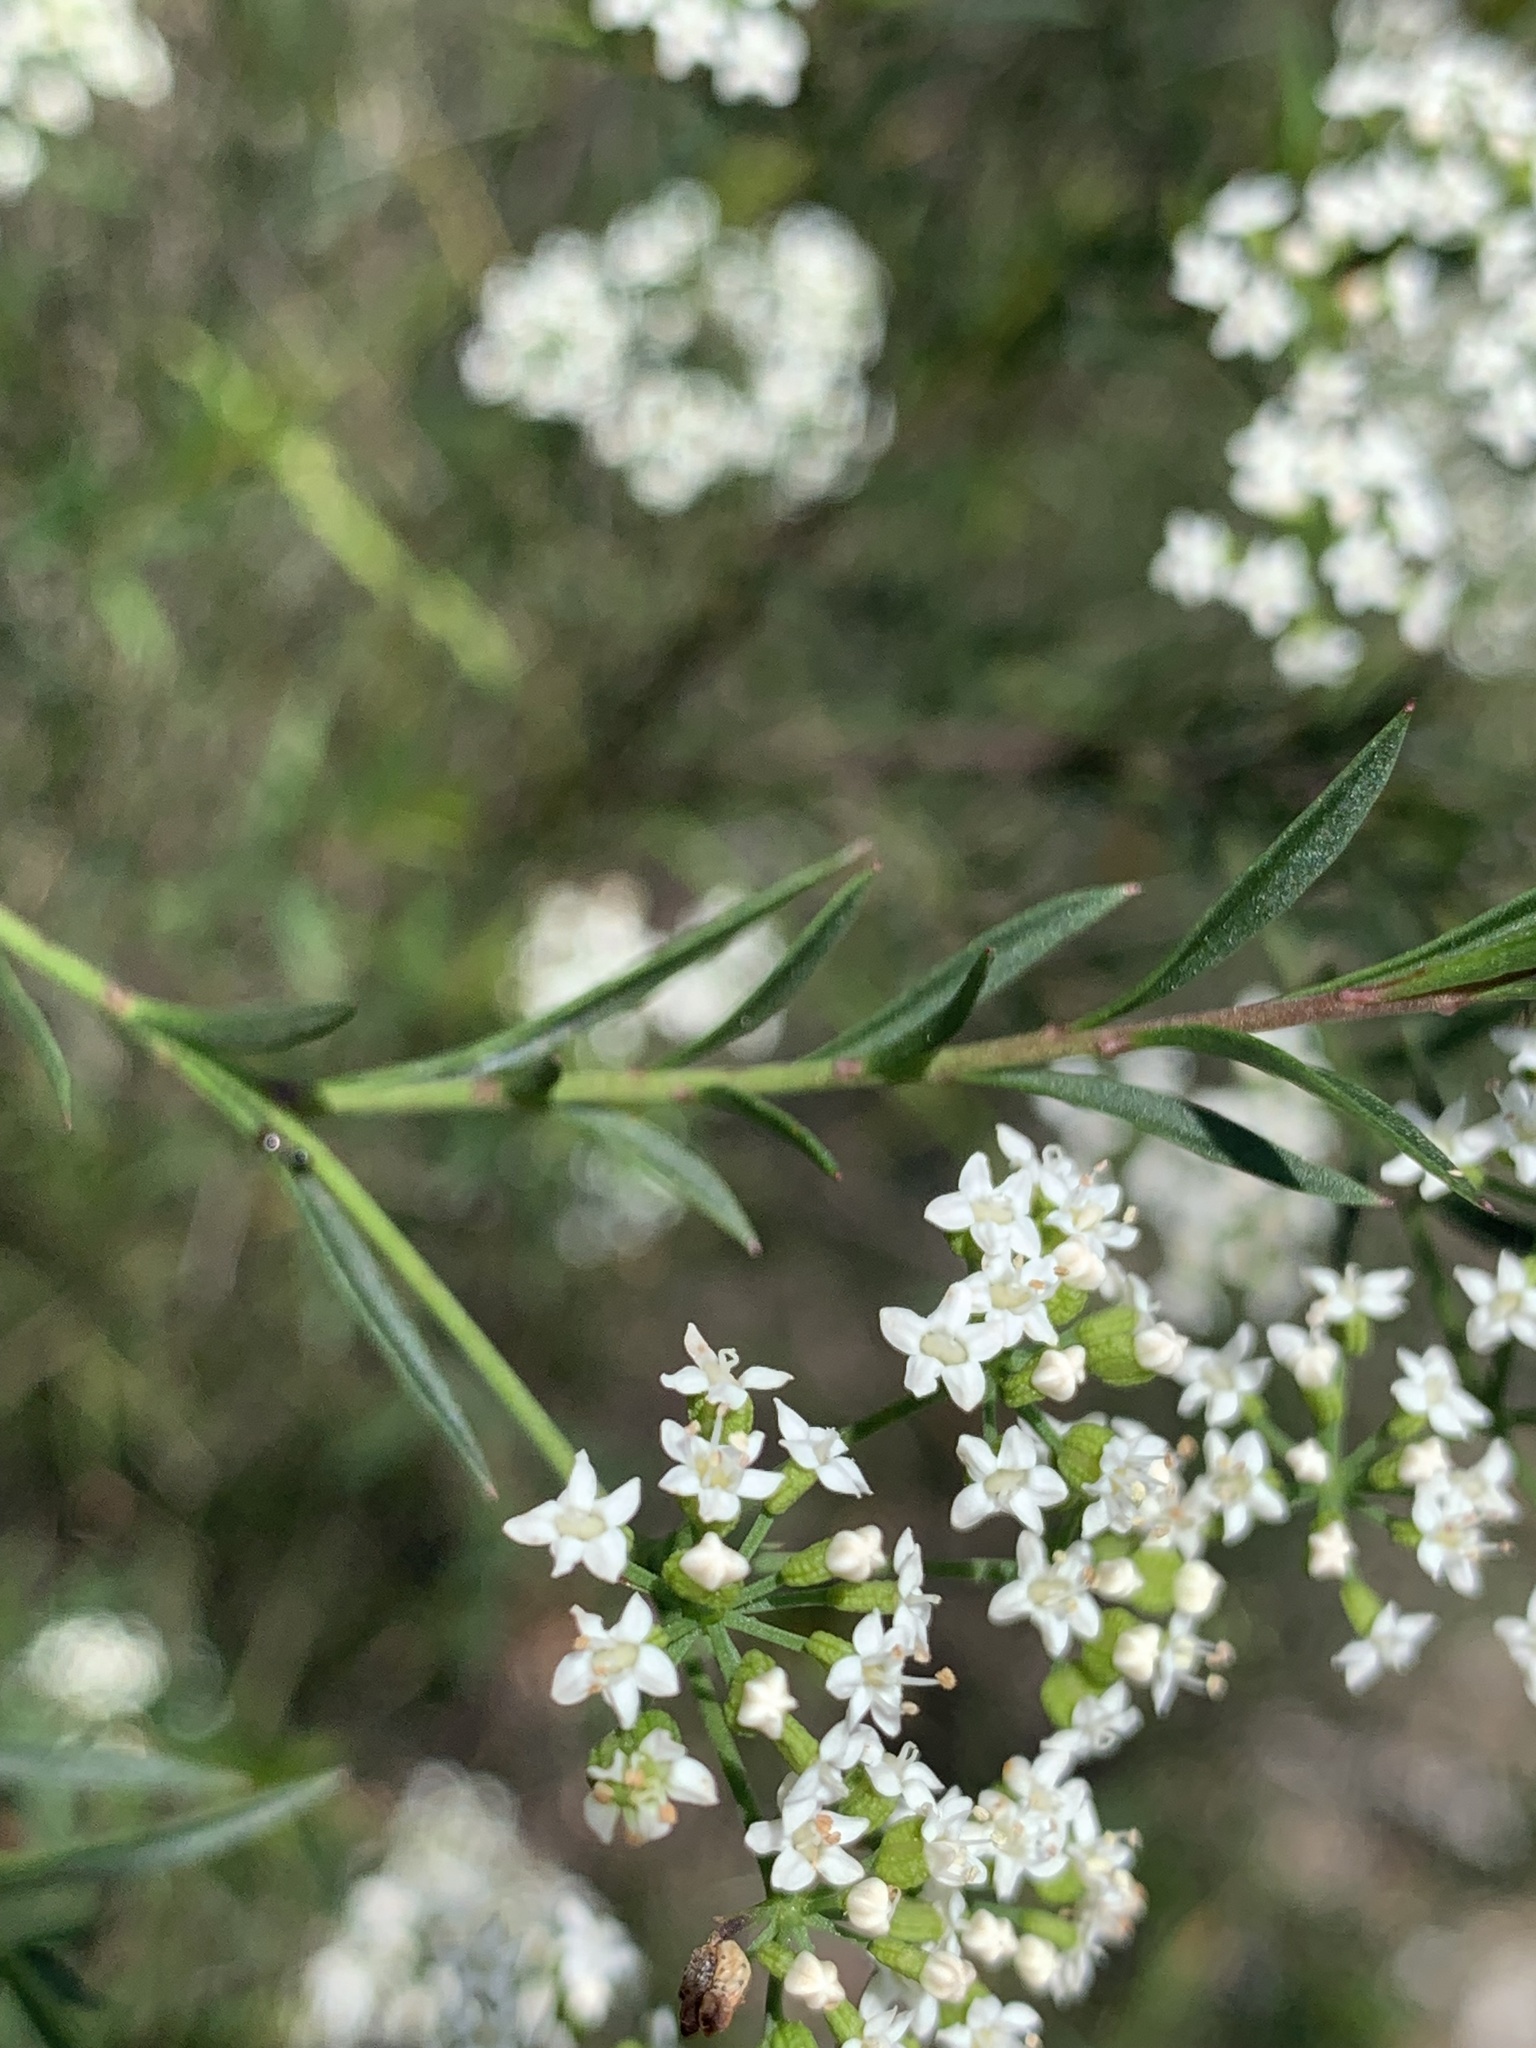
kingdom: Plantae
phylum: Tracheophyta
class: Magnoliopsida
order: Apiales
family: Apiaceae
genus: Platysace
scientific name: Platysace lanceolata
